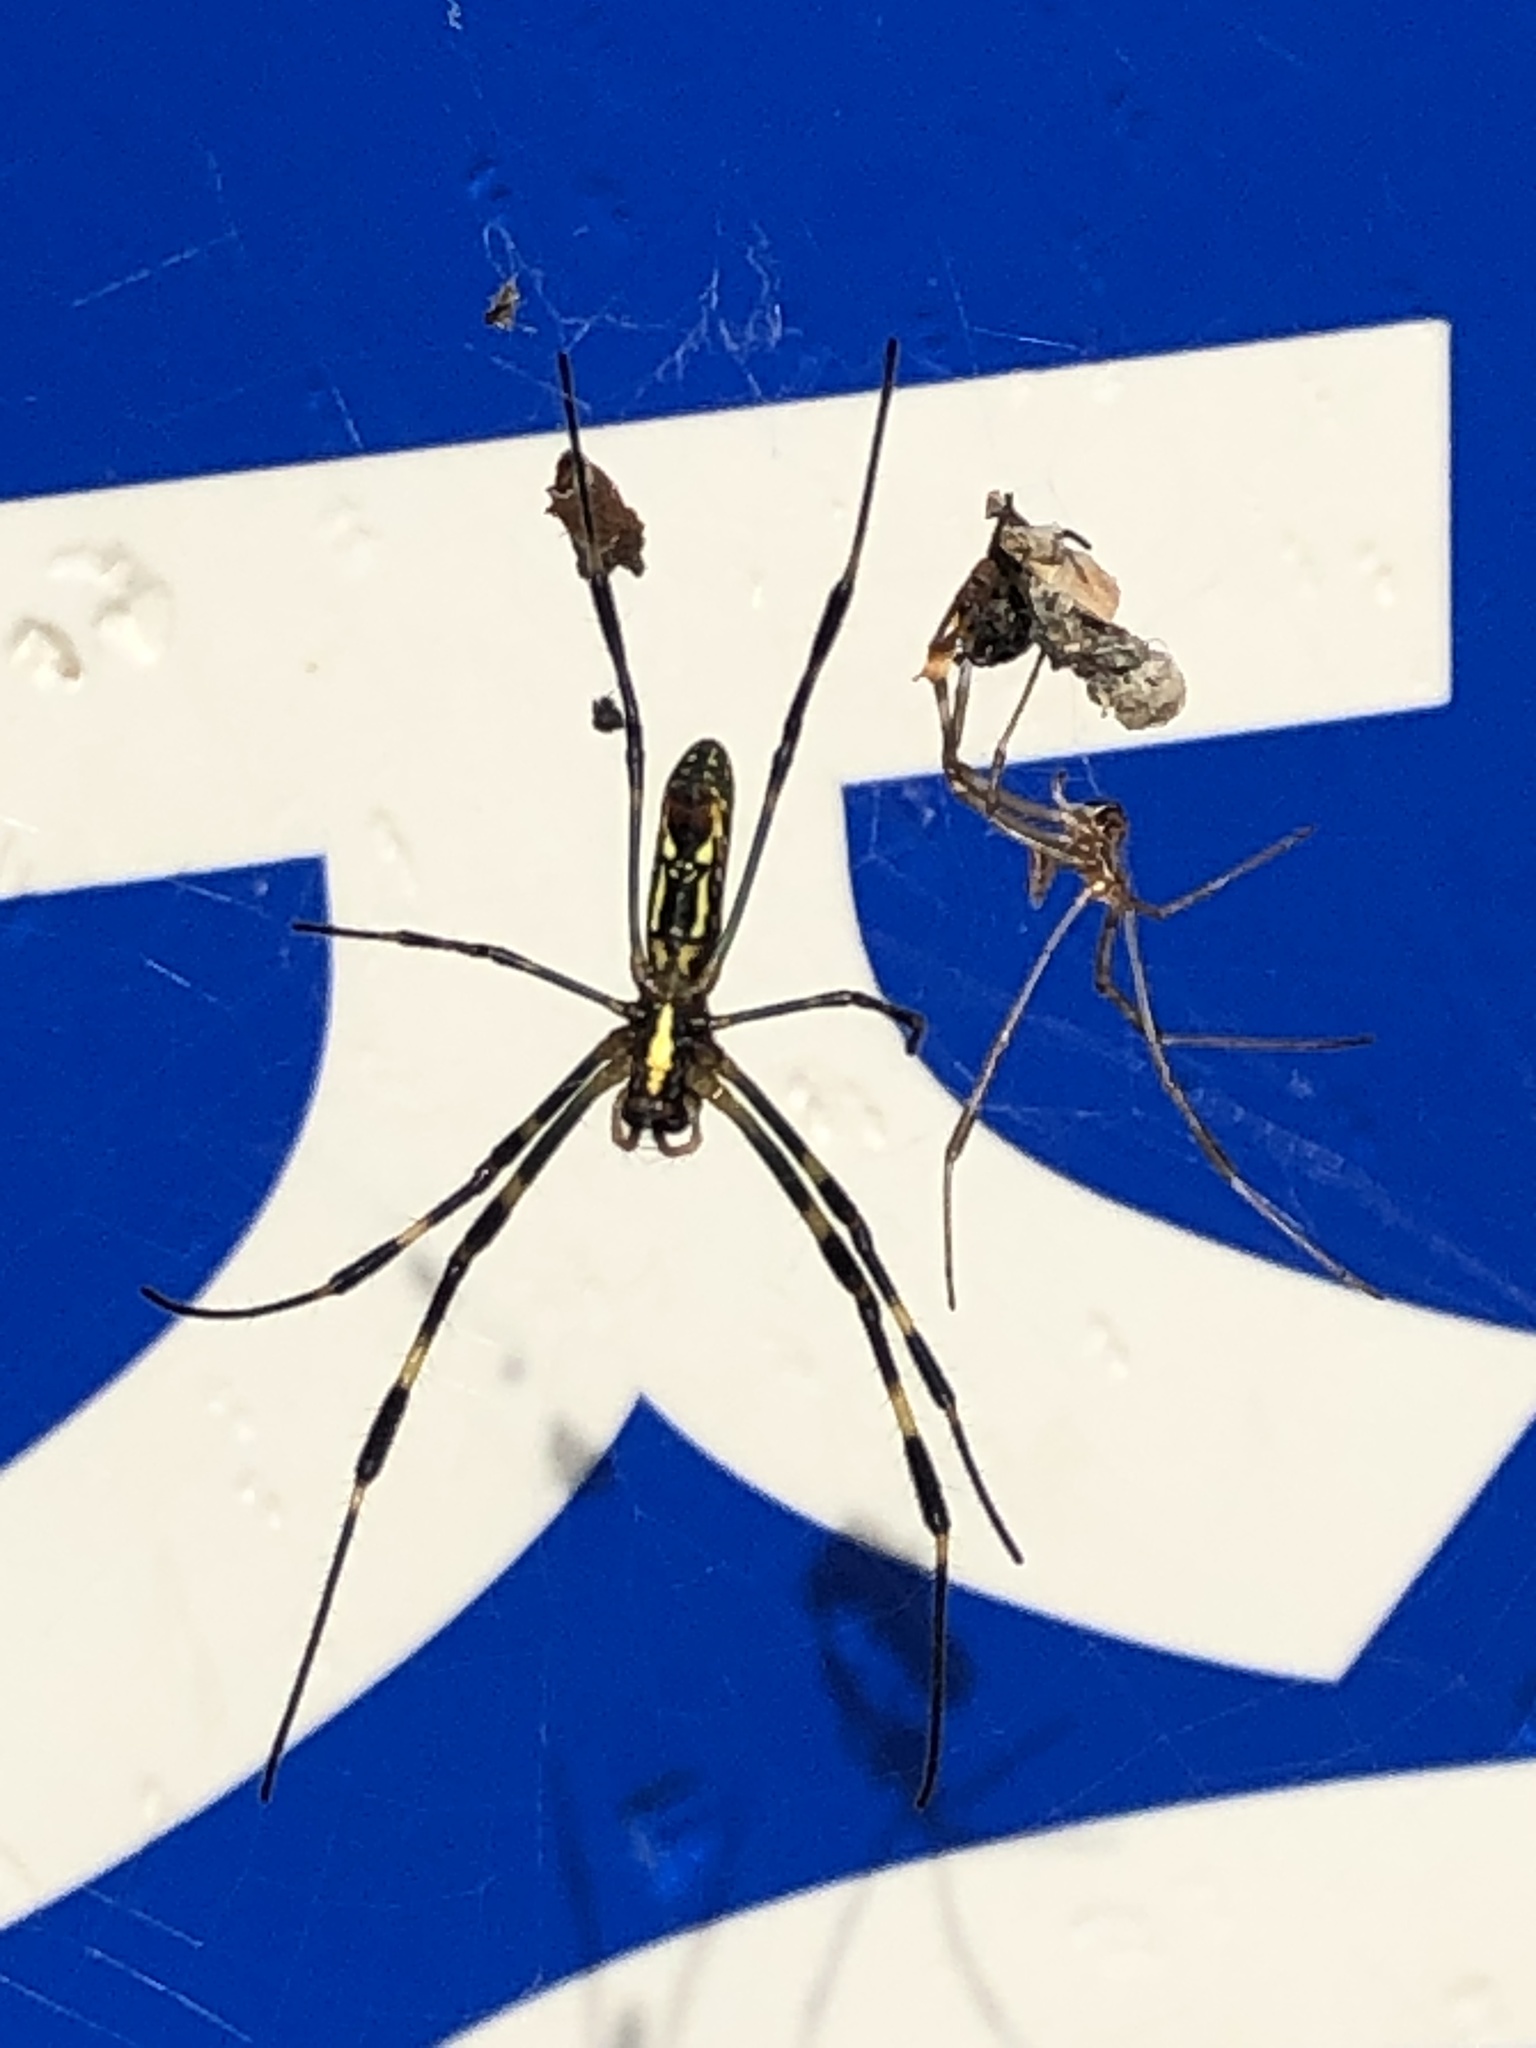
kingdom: Animalia
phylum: Arthropoda
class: Arachnida
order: Araneae
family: Araneidae
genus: Trichonephila
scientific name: Trichonephila clavata
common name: Jorō spider
